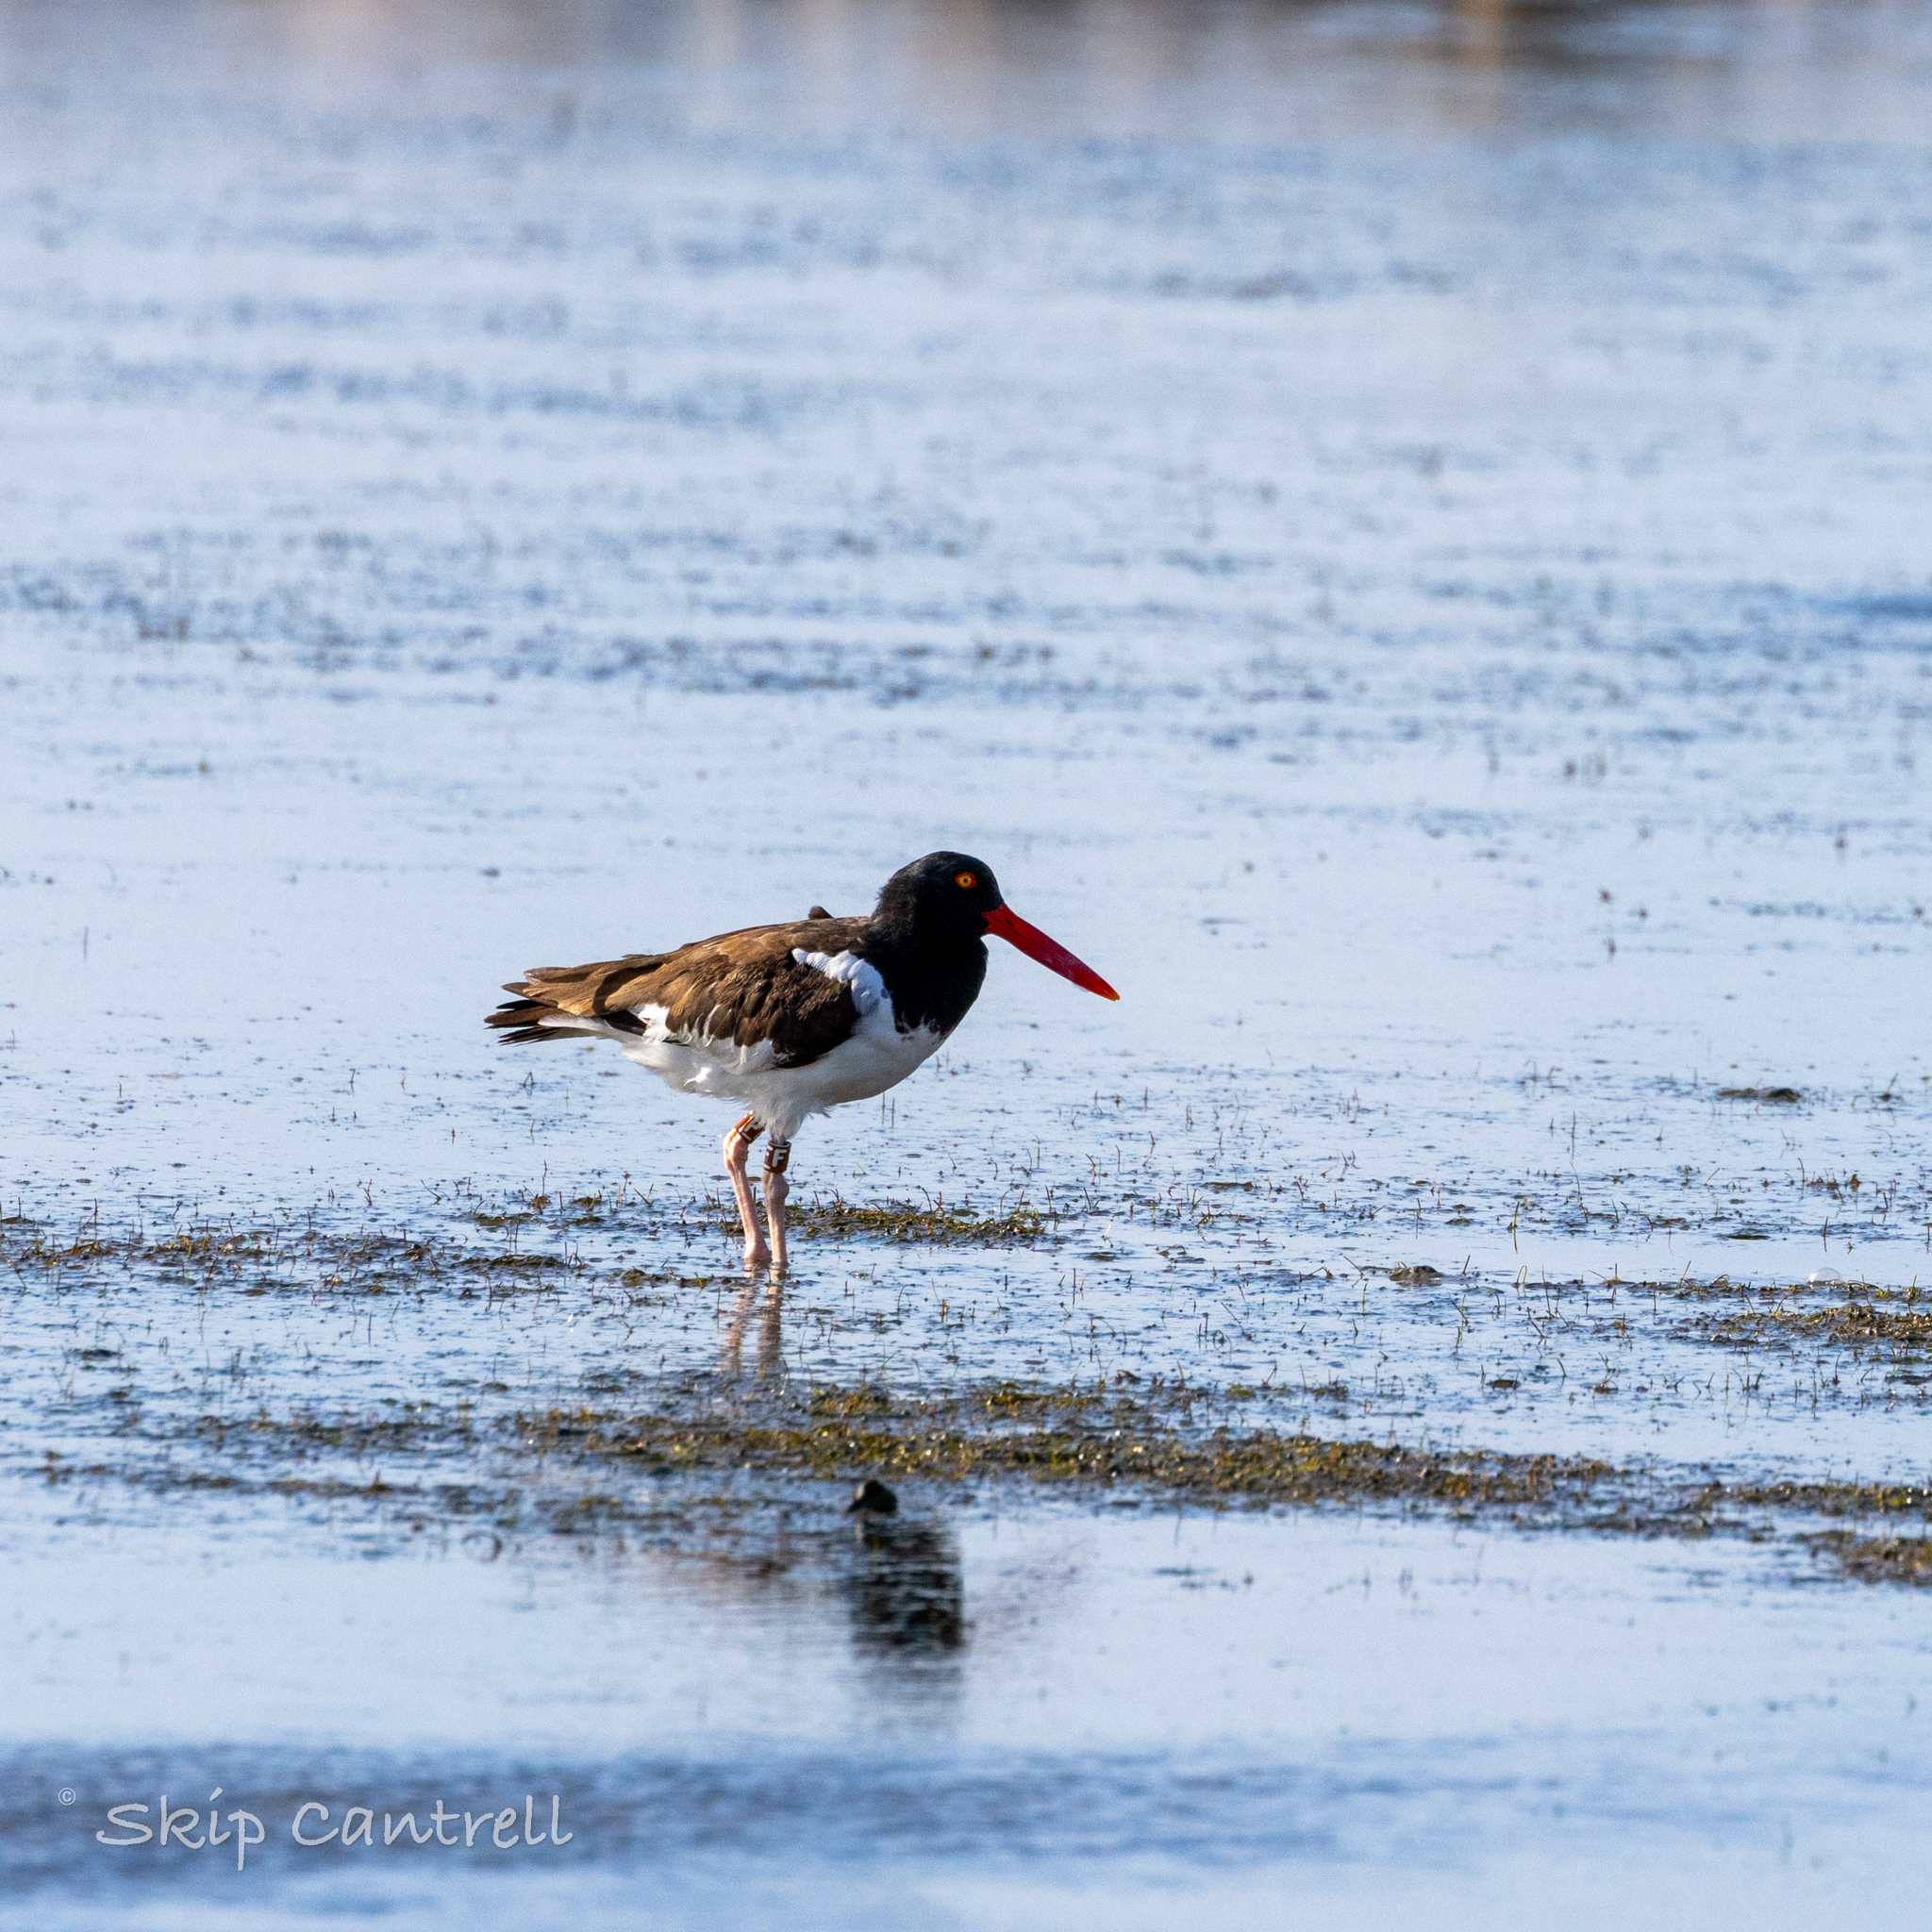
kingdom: Animalia
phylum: Chordata
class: Aves
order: Charadriiformes
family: Haematopodidae
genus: Haematopus
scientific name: Haematopus palliatus
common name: American oystercatcher
